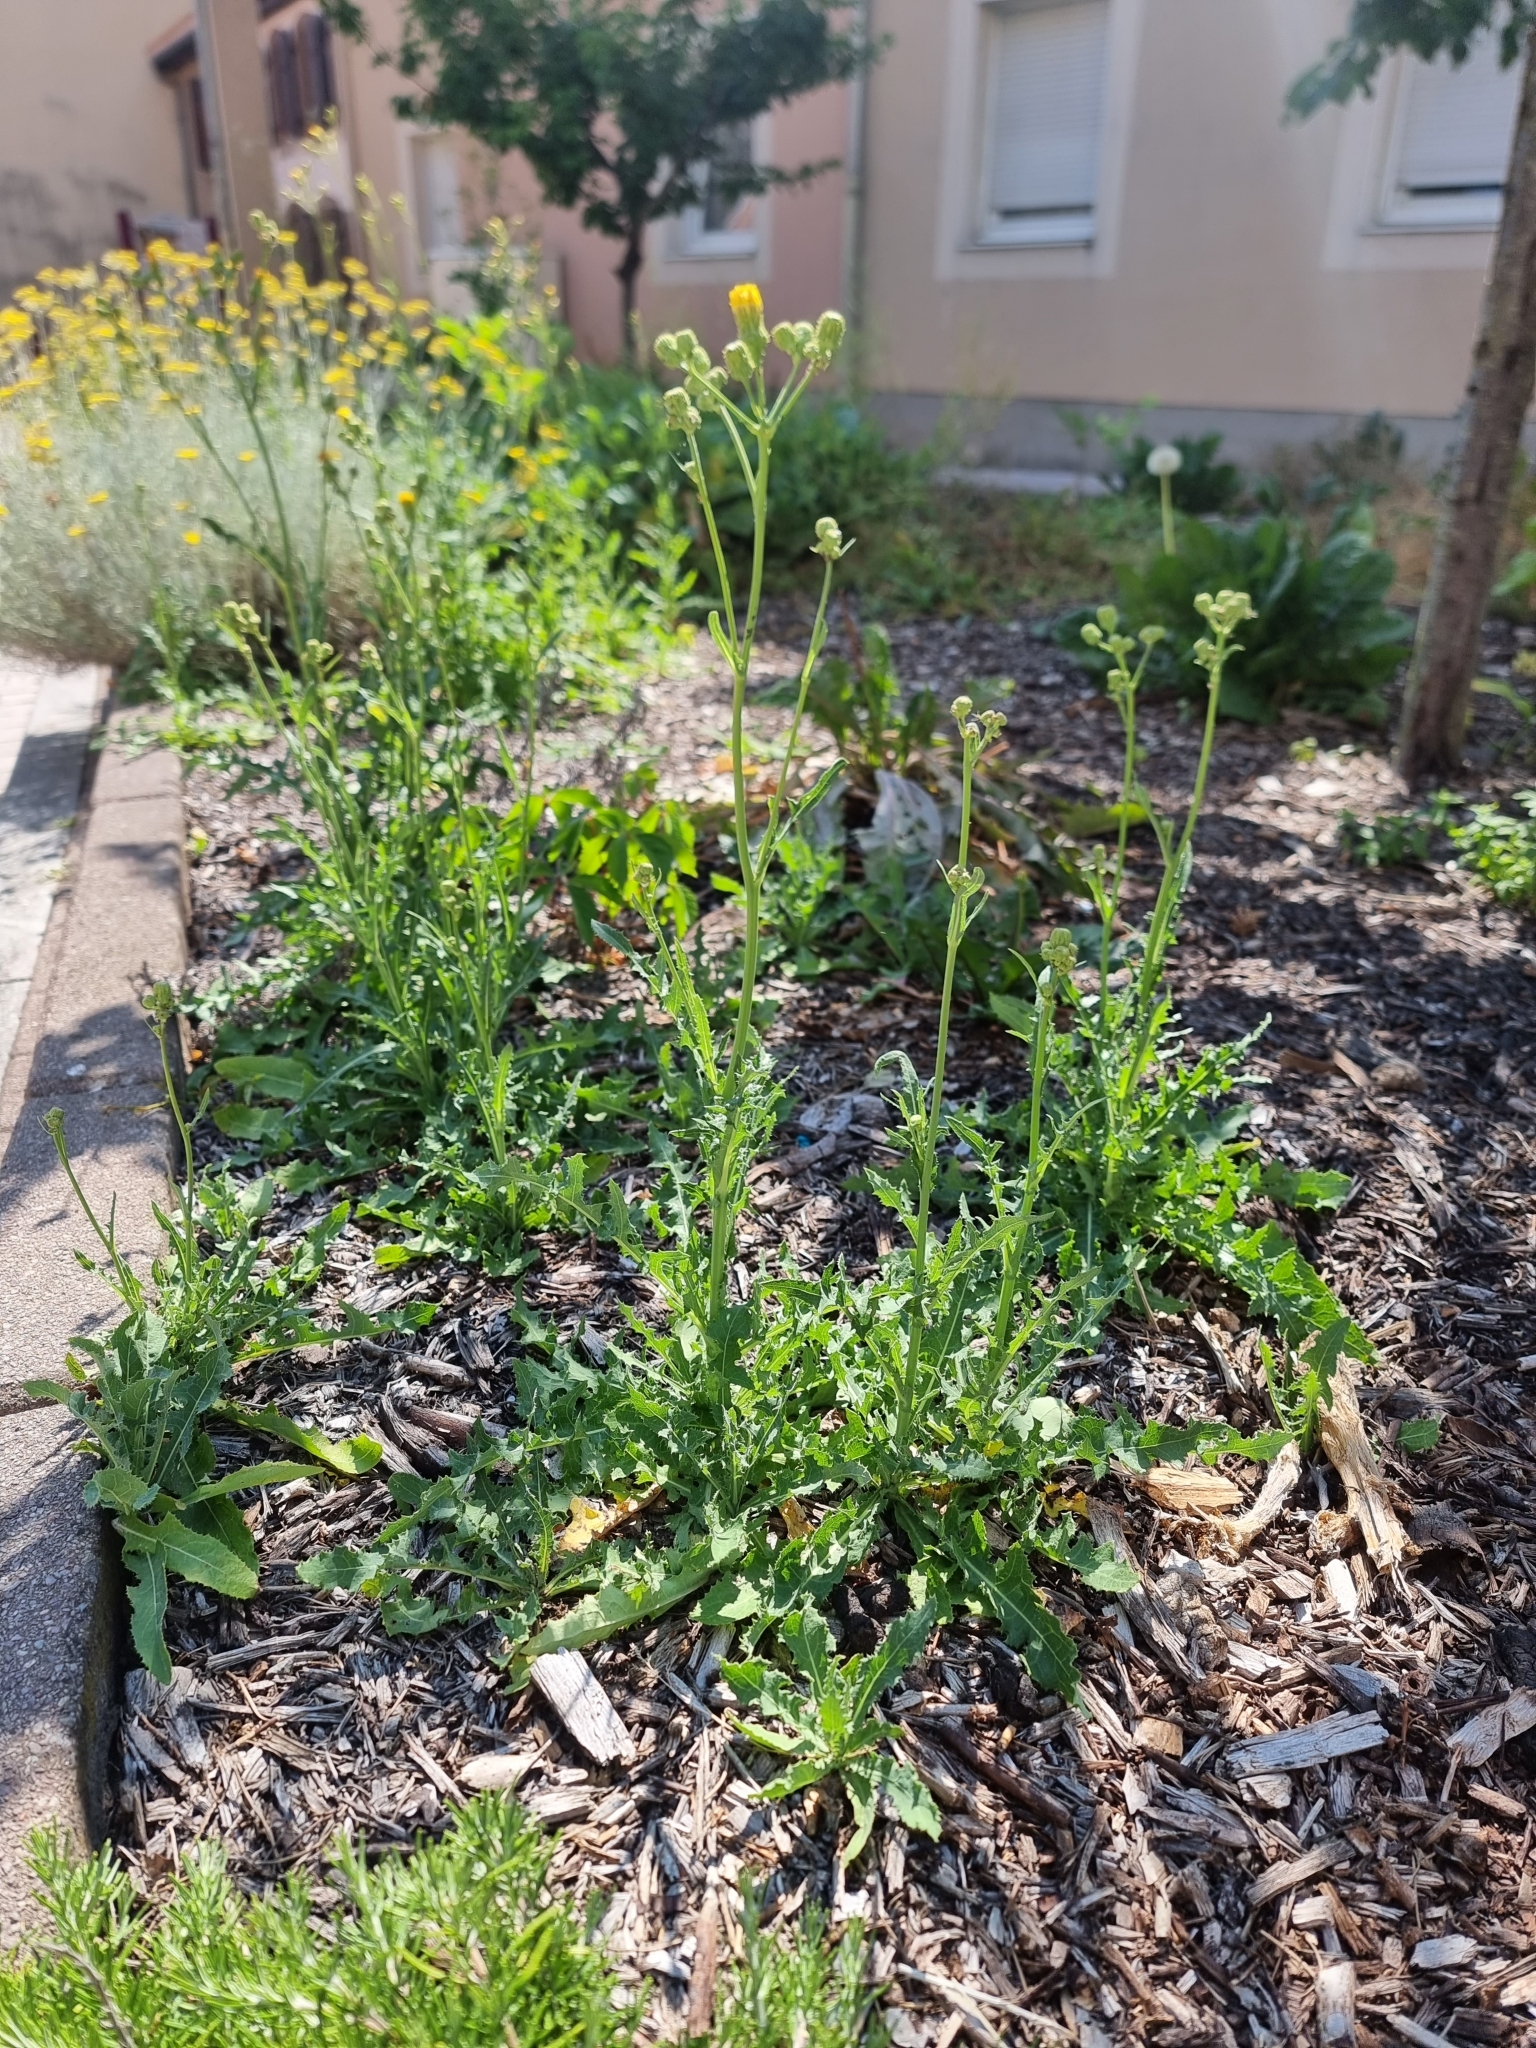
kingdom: Plantae
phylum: Tracheophyta
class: Magnoliopsida
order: Asterales
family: Asteraceae
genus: Sonchus
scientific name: Sonchus arvensis
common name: Perennial sow-thistle
